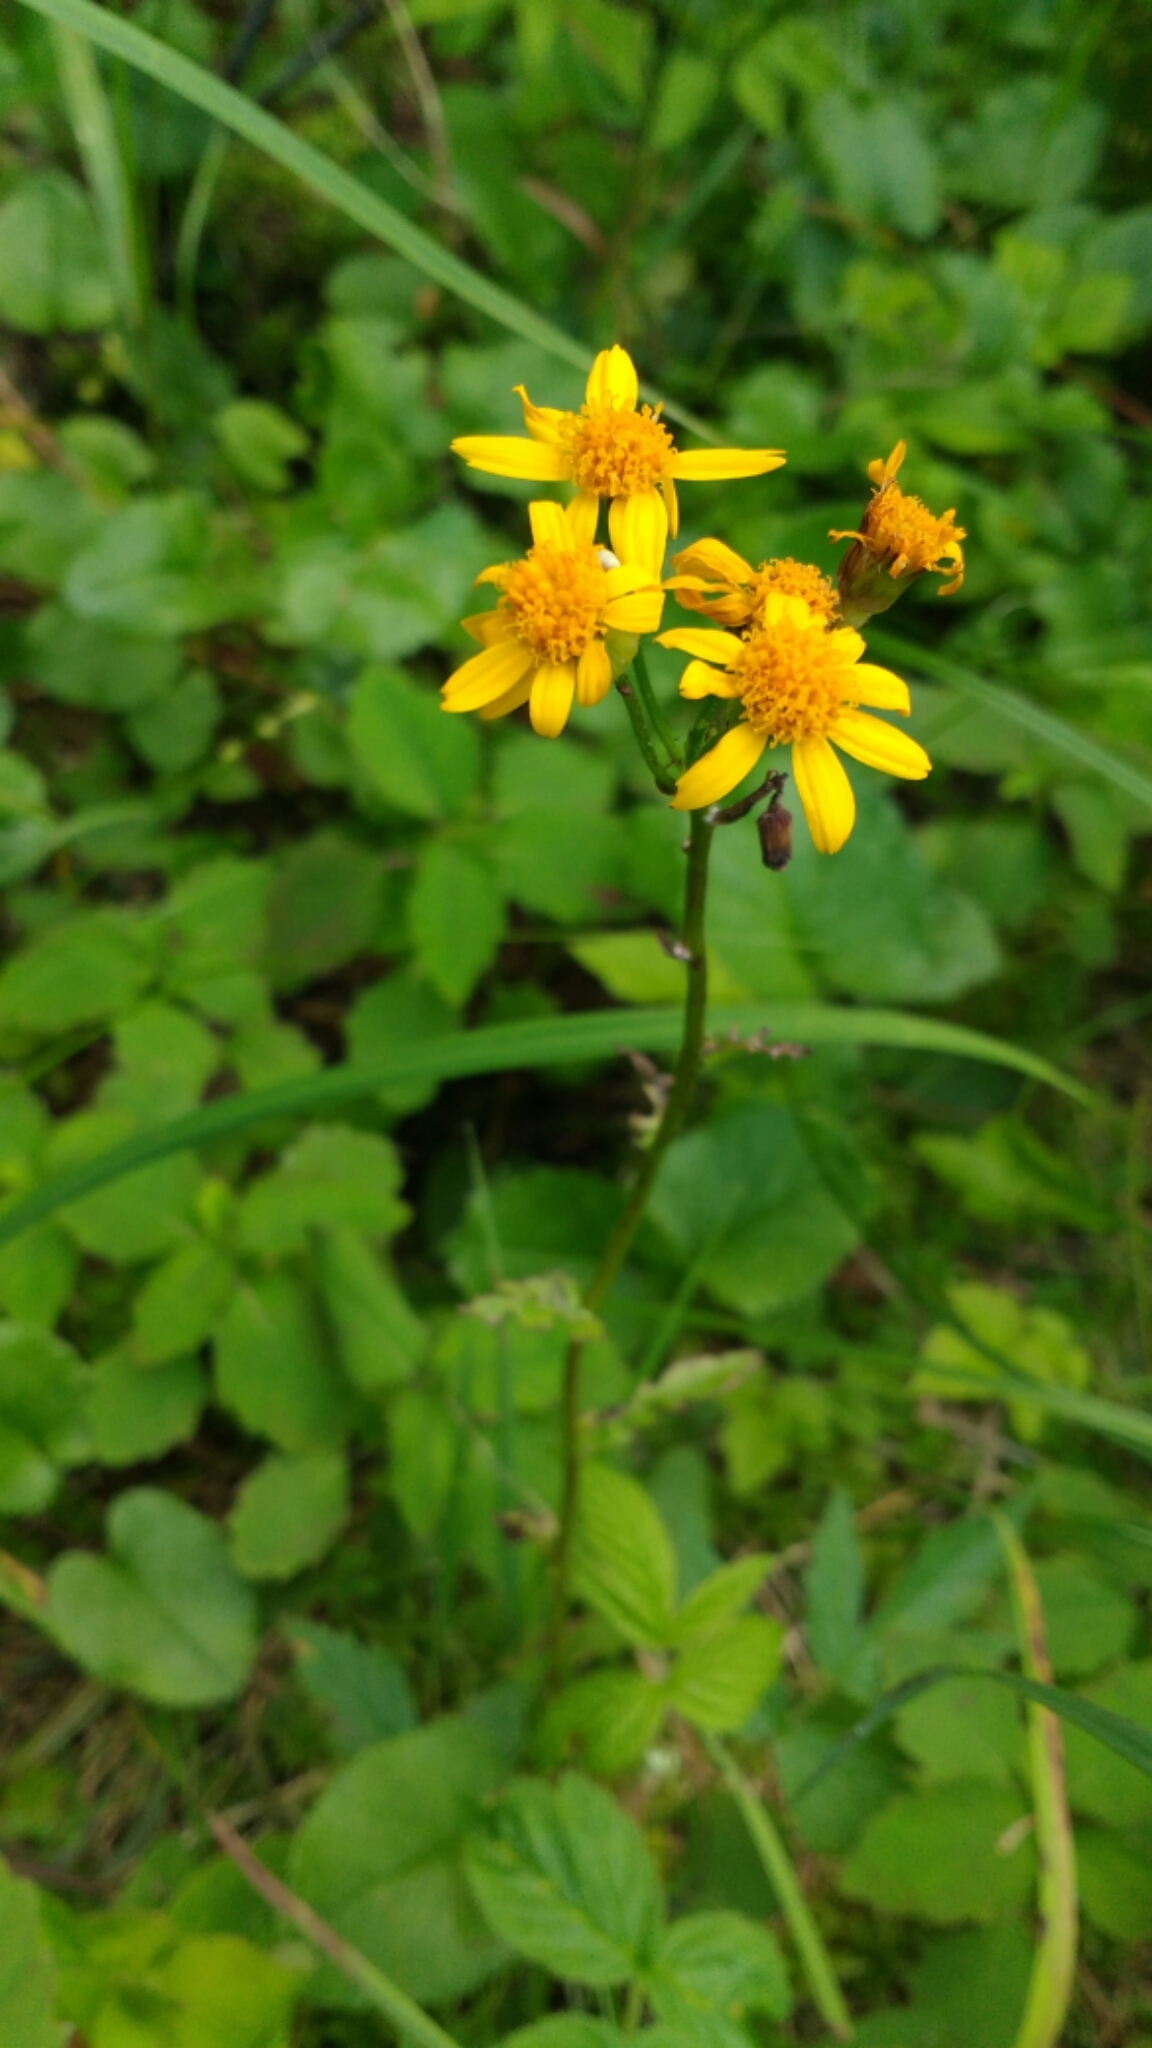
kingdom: Plantae
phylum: Tracheophyta
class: Magnoliopsida
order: Asterales
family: Asteraceae
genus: Packera
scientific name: Packera aurea
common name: Golden groundsel
